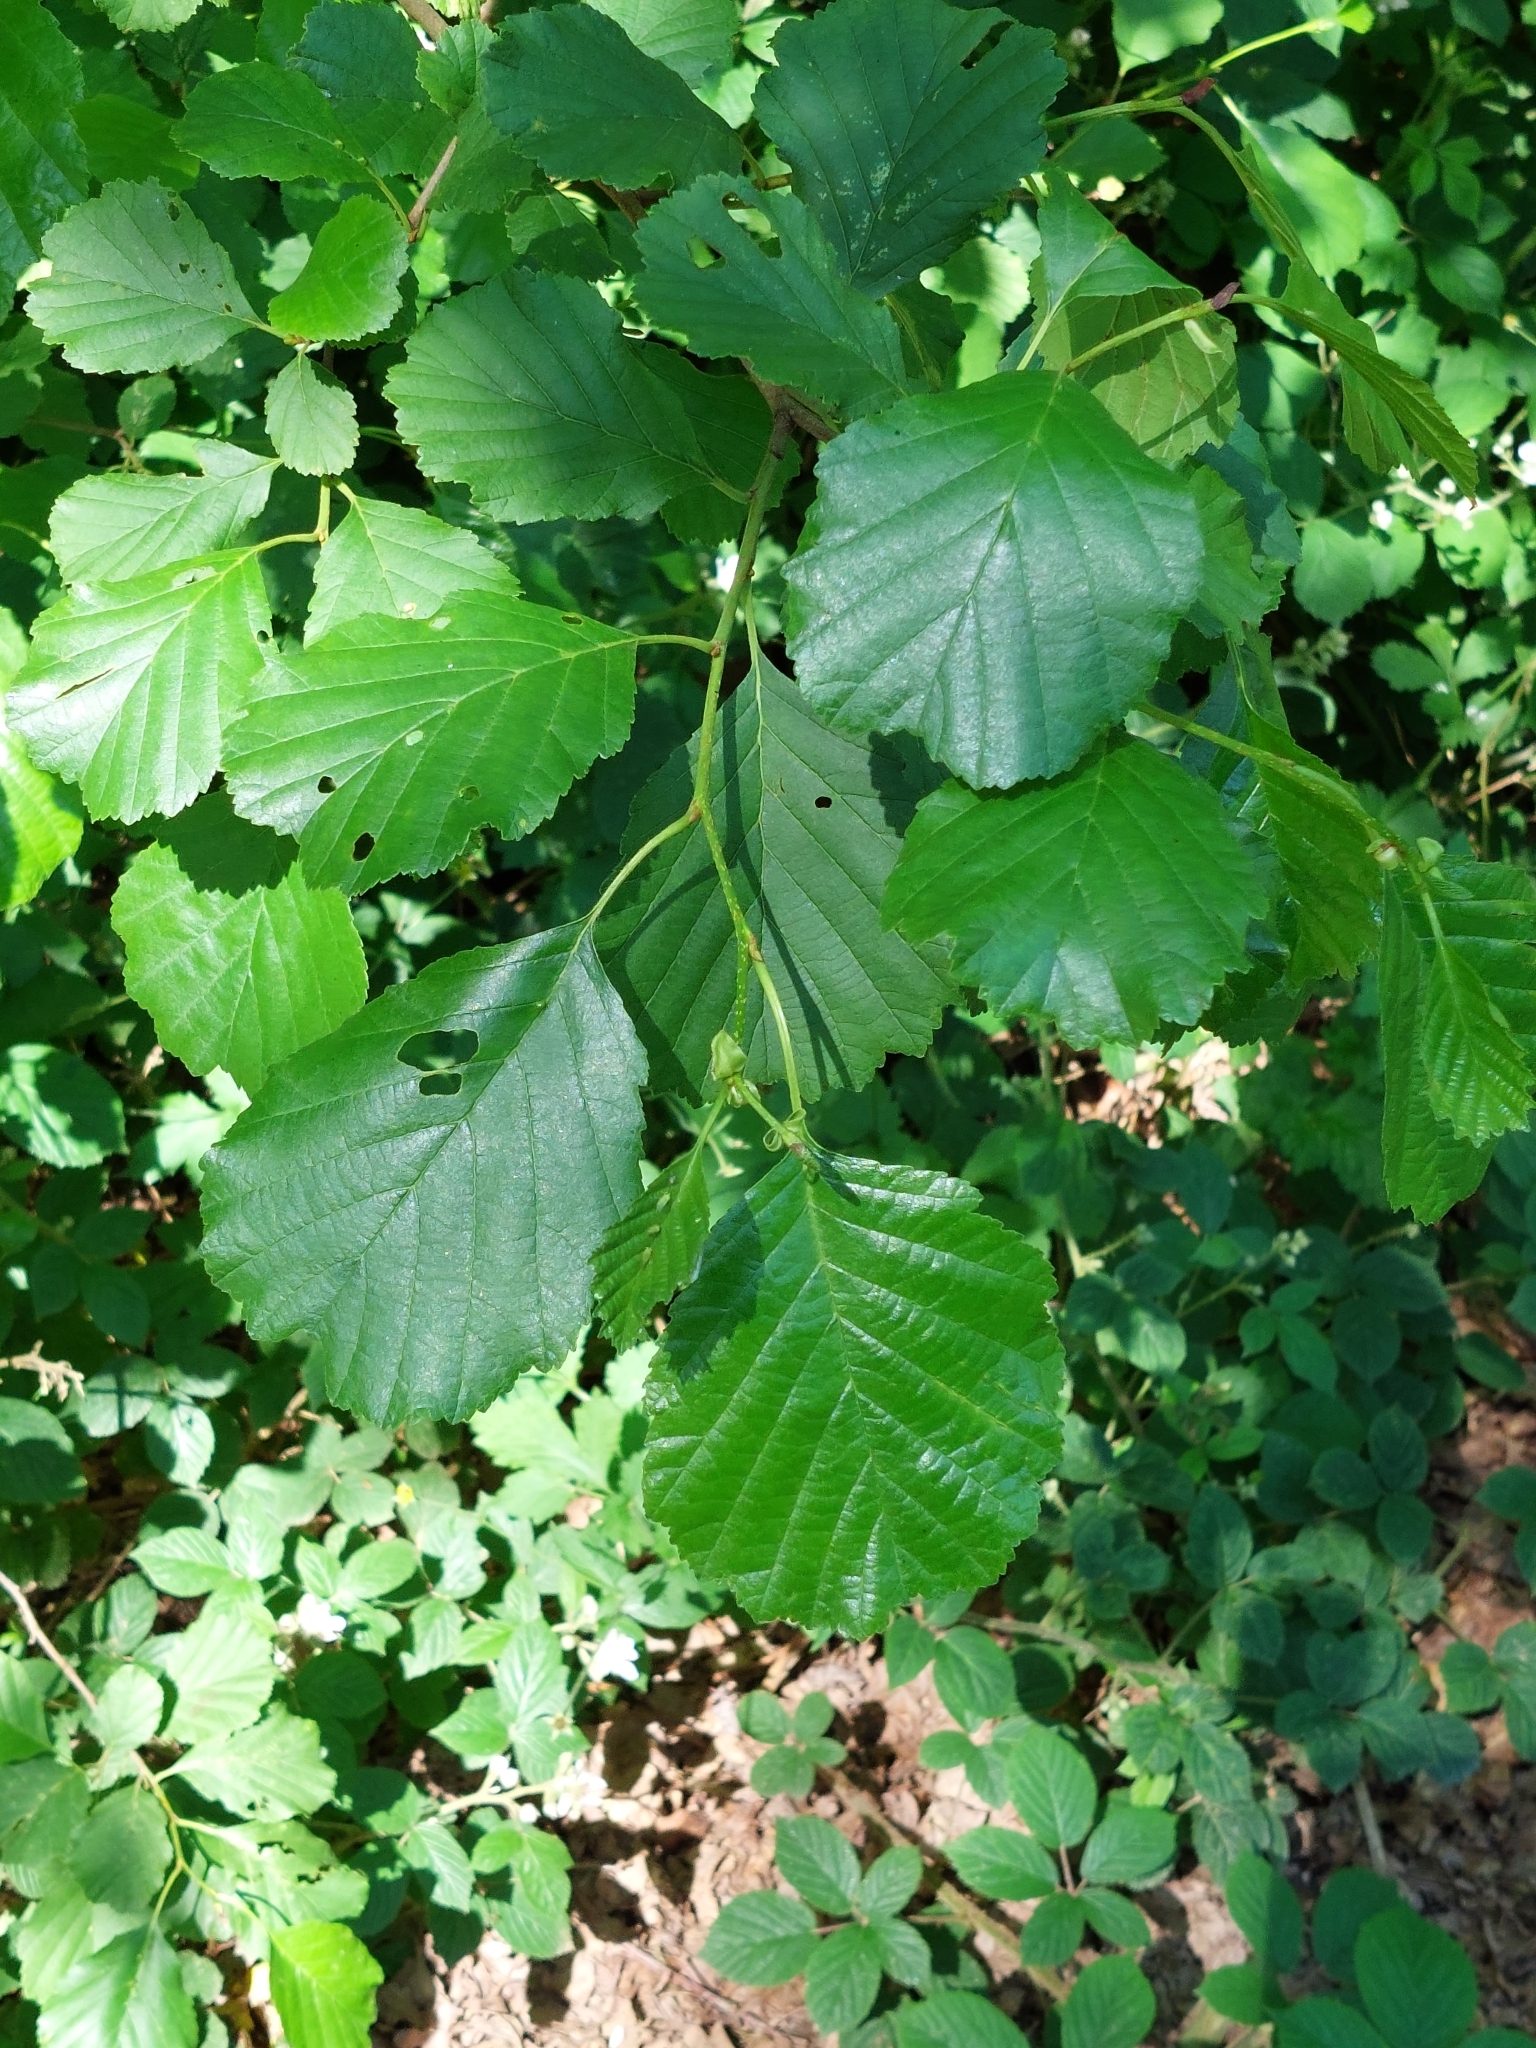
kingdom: Plantae
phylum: Tracheophyta
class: Magnoliopsida
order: Fagales
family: Betulaceae
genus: Alnus
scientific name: Alnus glutinosa
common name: Black alder
